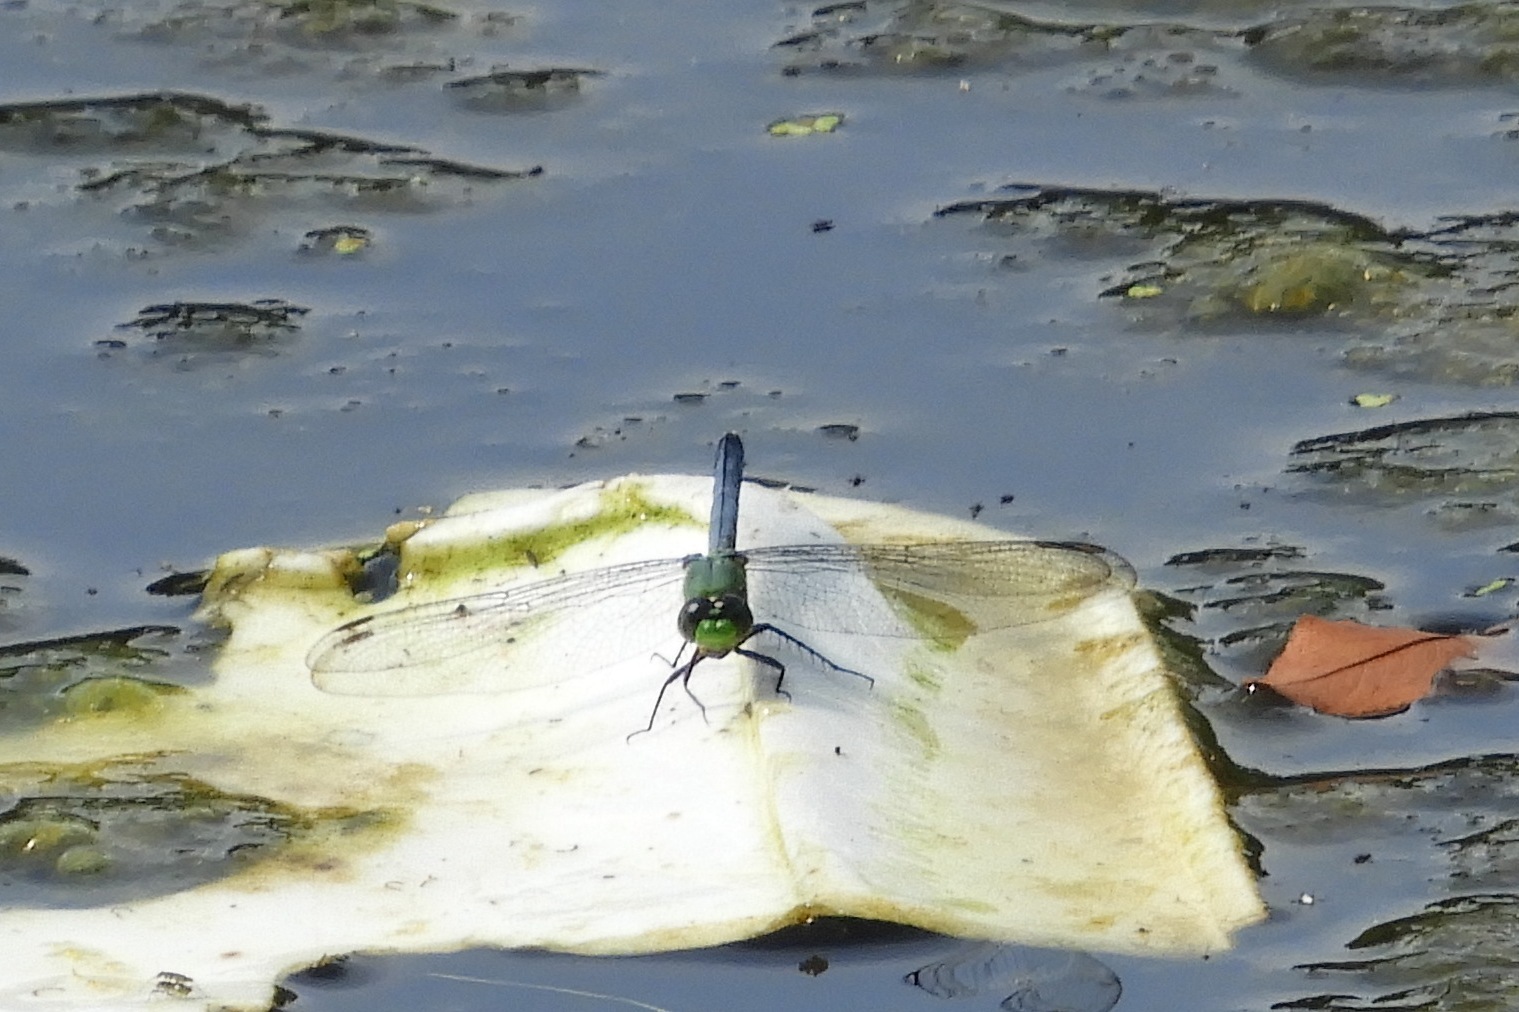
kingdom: Animalia
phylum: Arthropoda
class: Insecta
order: Odonata
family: Libellulidae
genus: Erythemis
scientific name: Erythemis simplicicollis
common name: Eastern pondhawk
